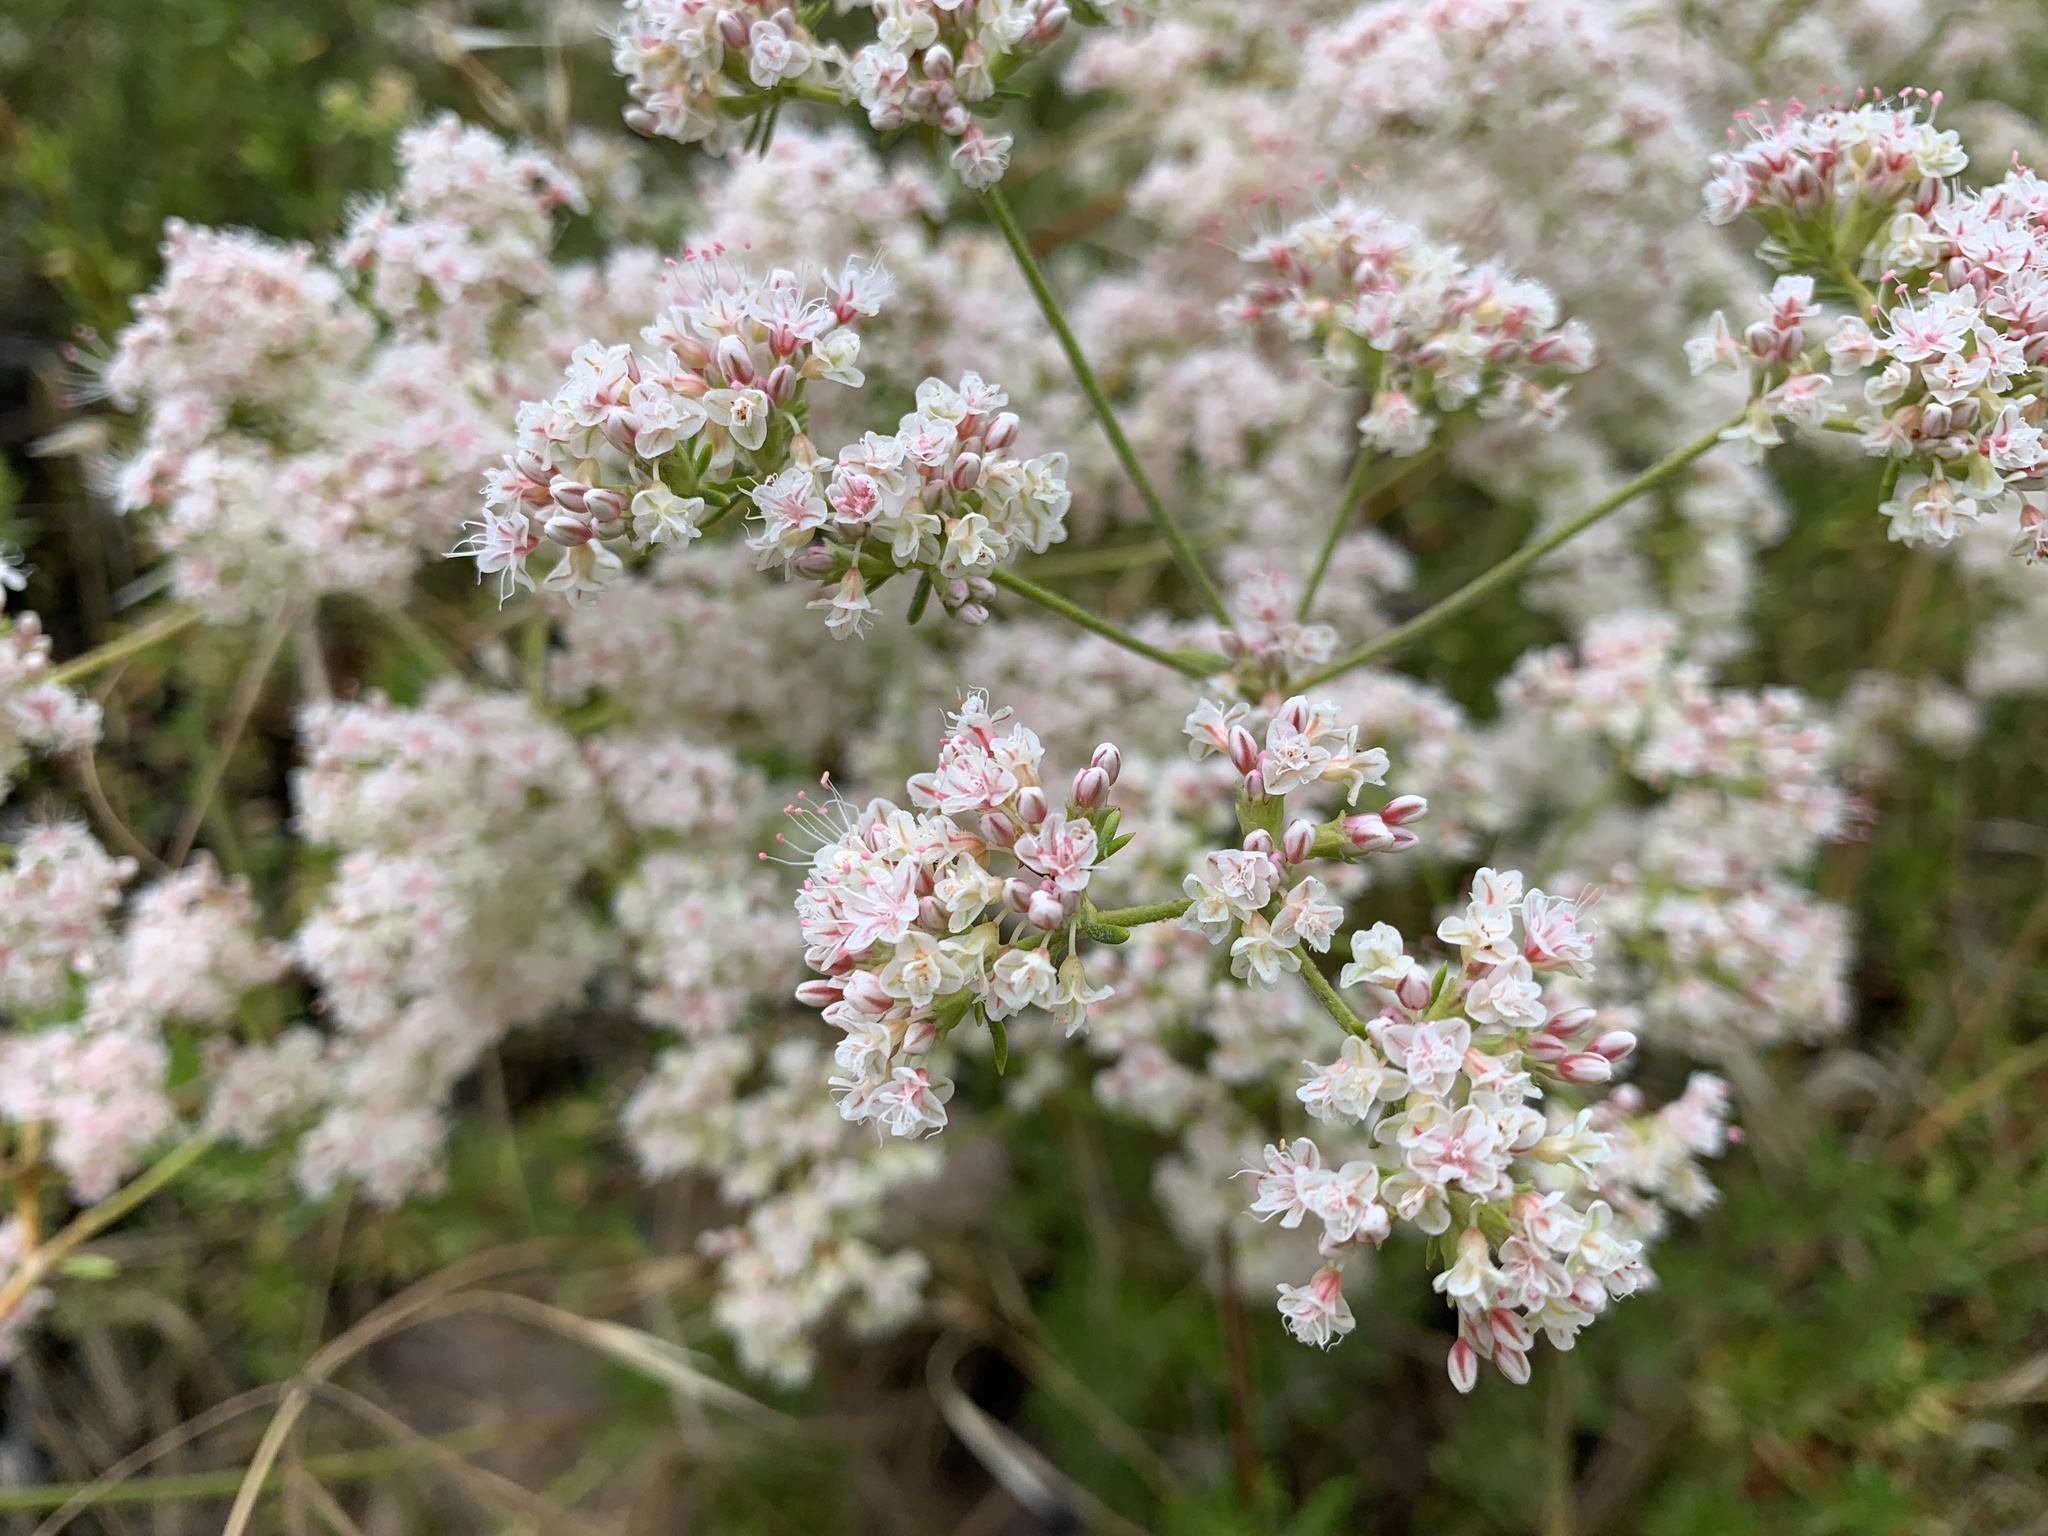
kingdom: Plantae
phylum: Tracheophyta
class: Magnoliopsida
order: Caryophyllales
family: Polygonaceae
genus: Eriogonum
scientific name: Eriogonum fasciculatum
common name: California wild buckwheat
